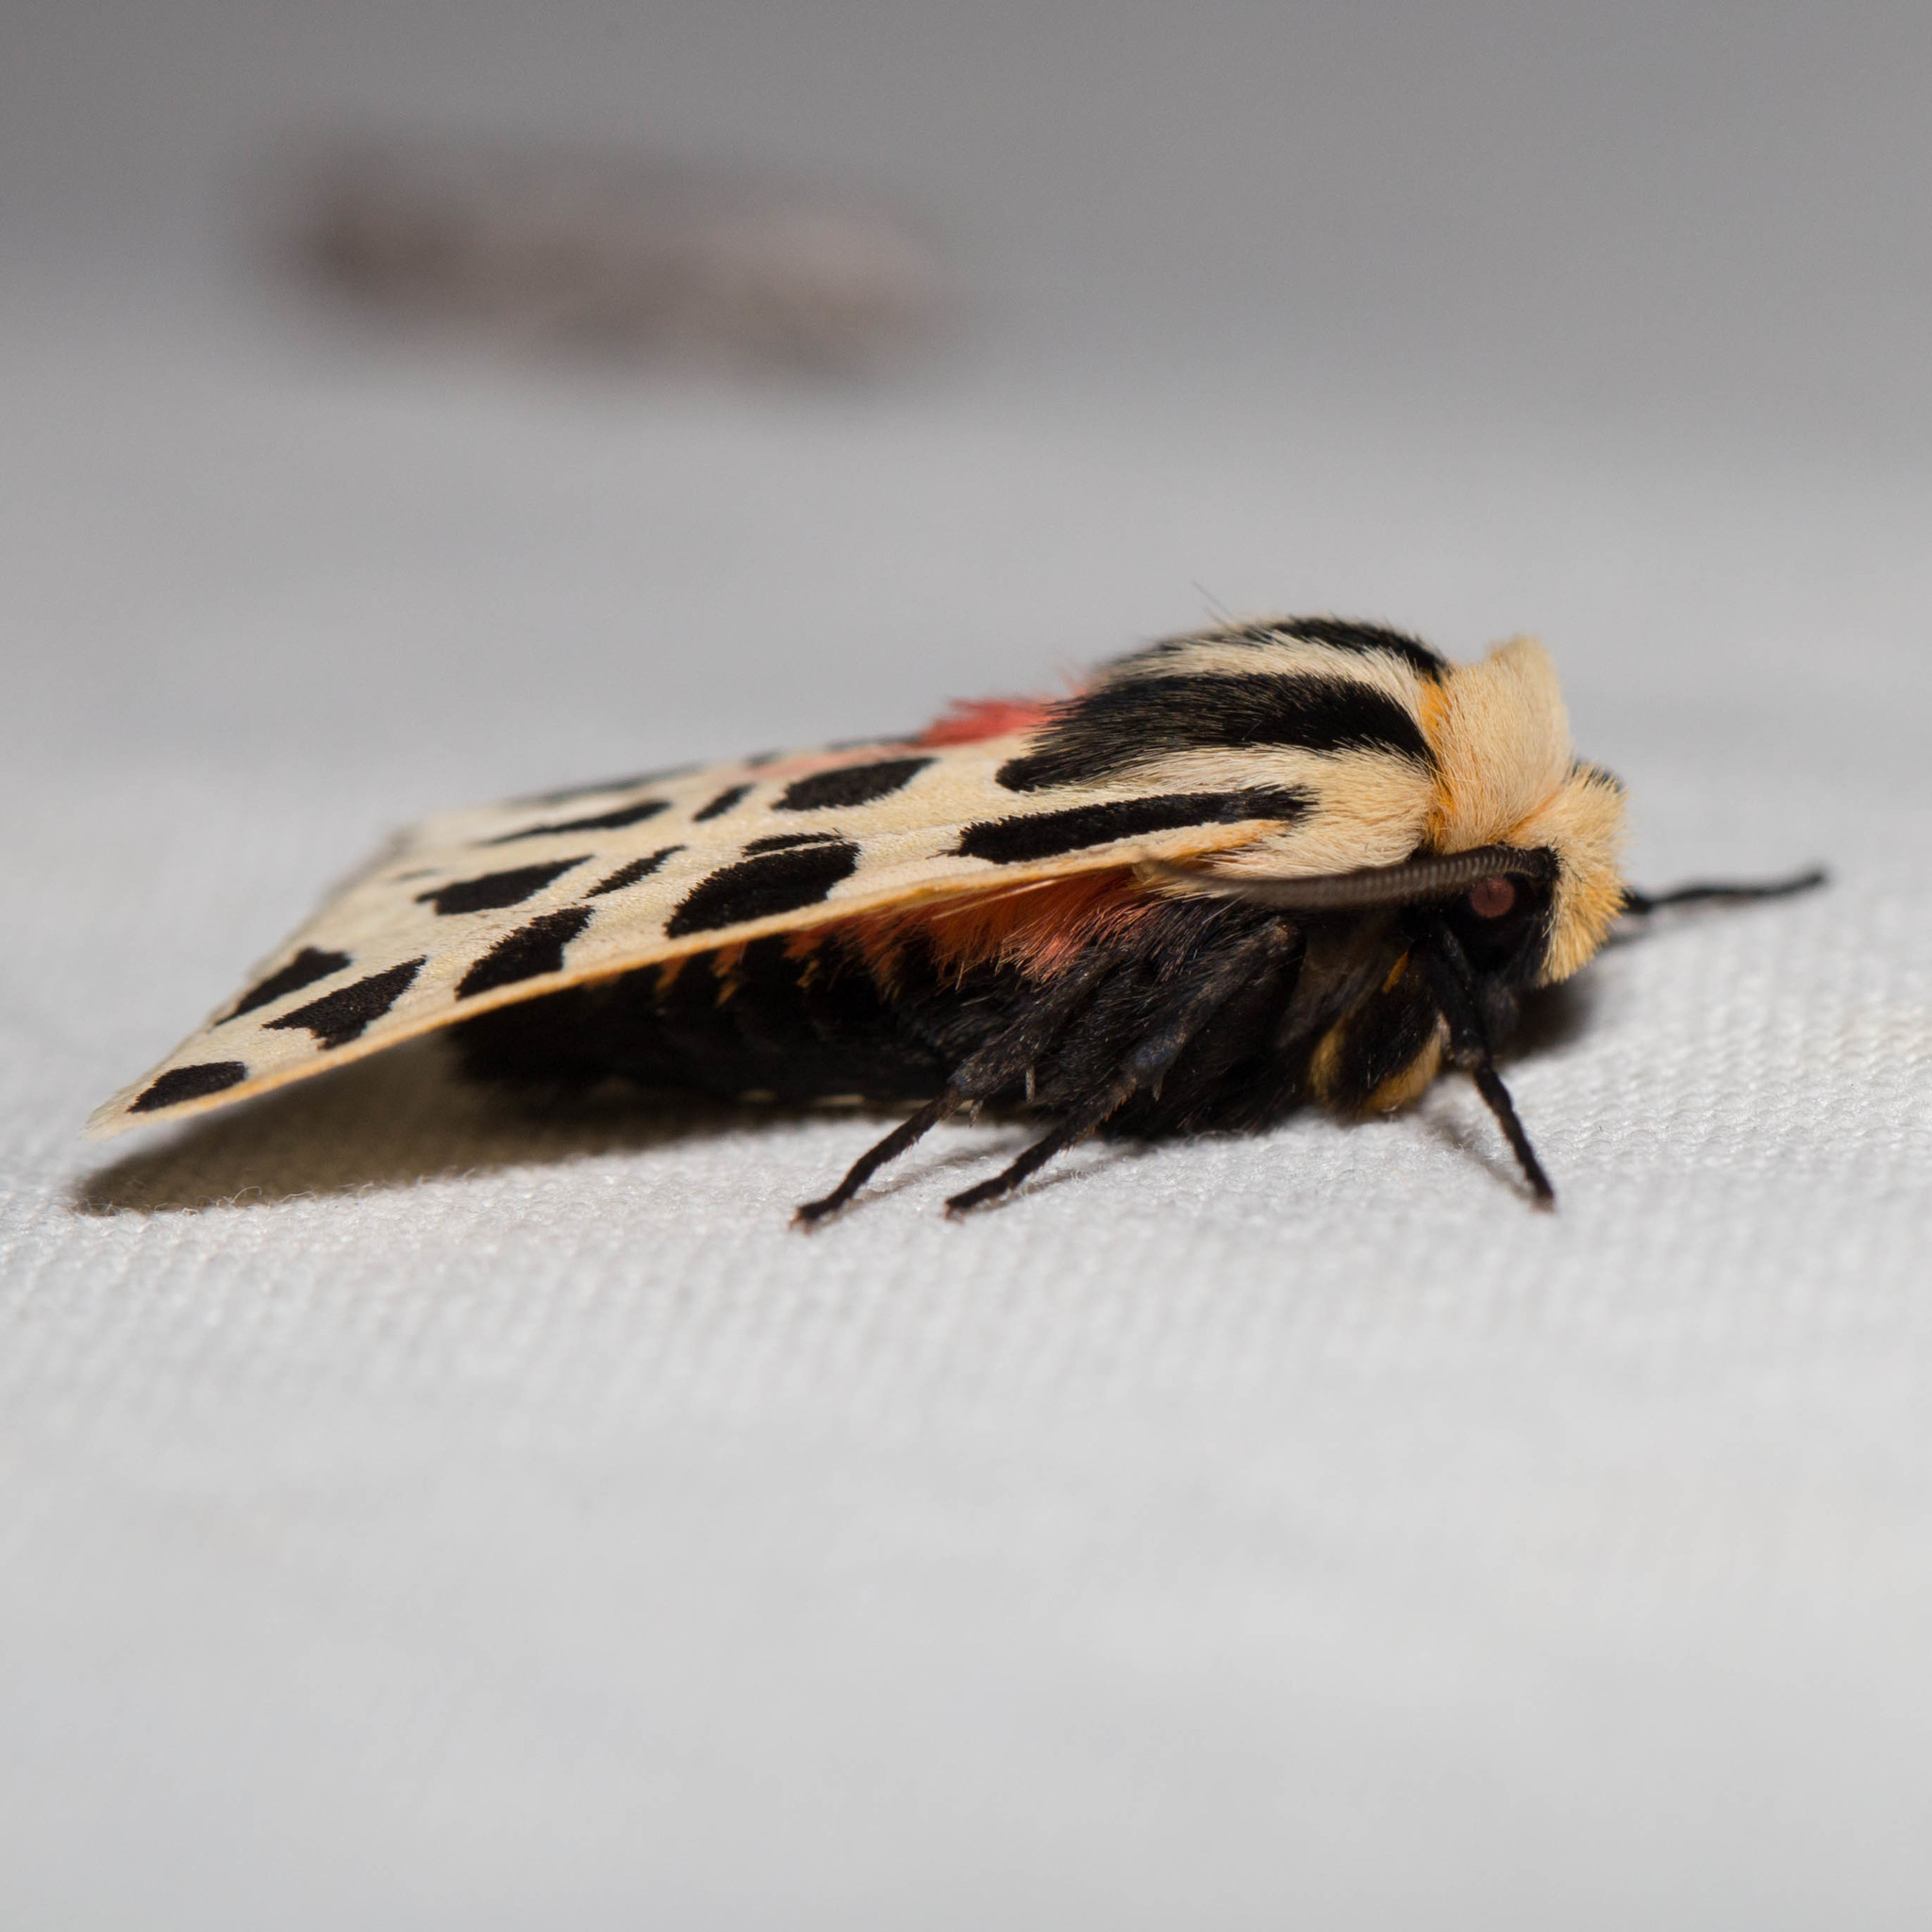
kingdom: Animalia
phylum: Arthropoda
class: Insecta
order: Lepidoptera
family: Erebidae
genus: Apantesis
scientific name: Apantesis
